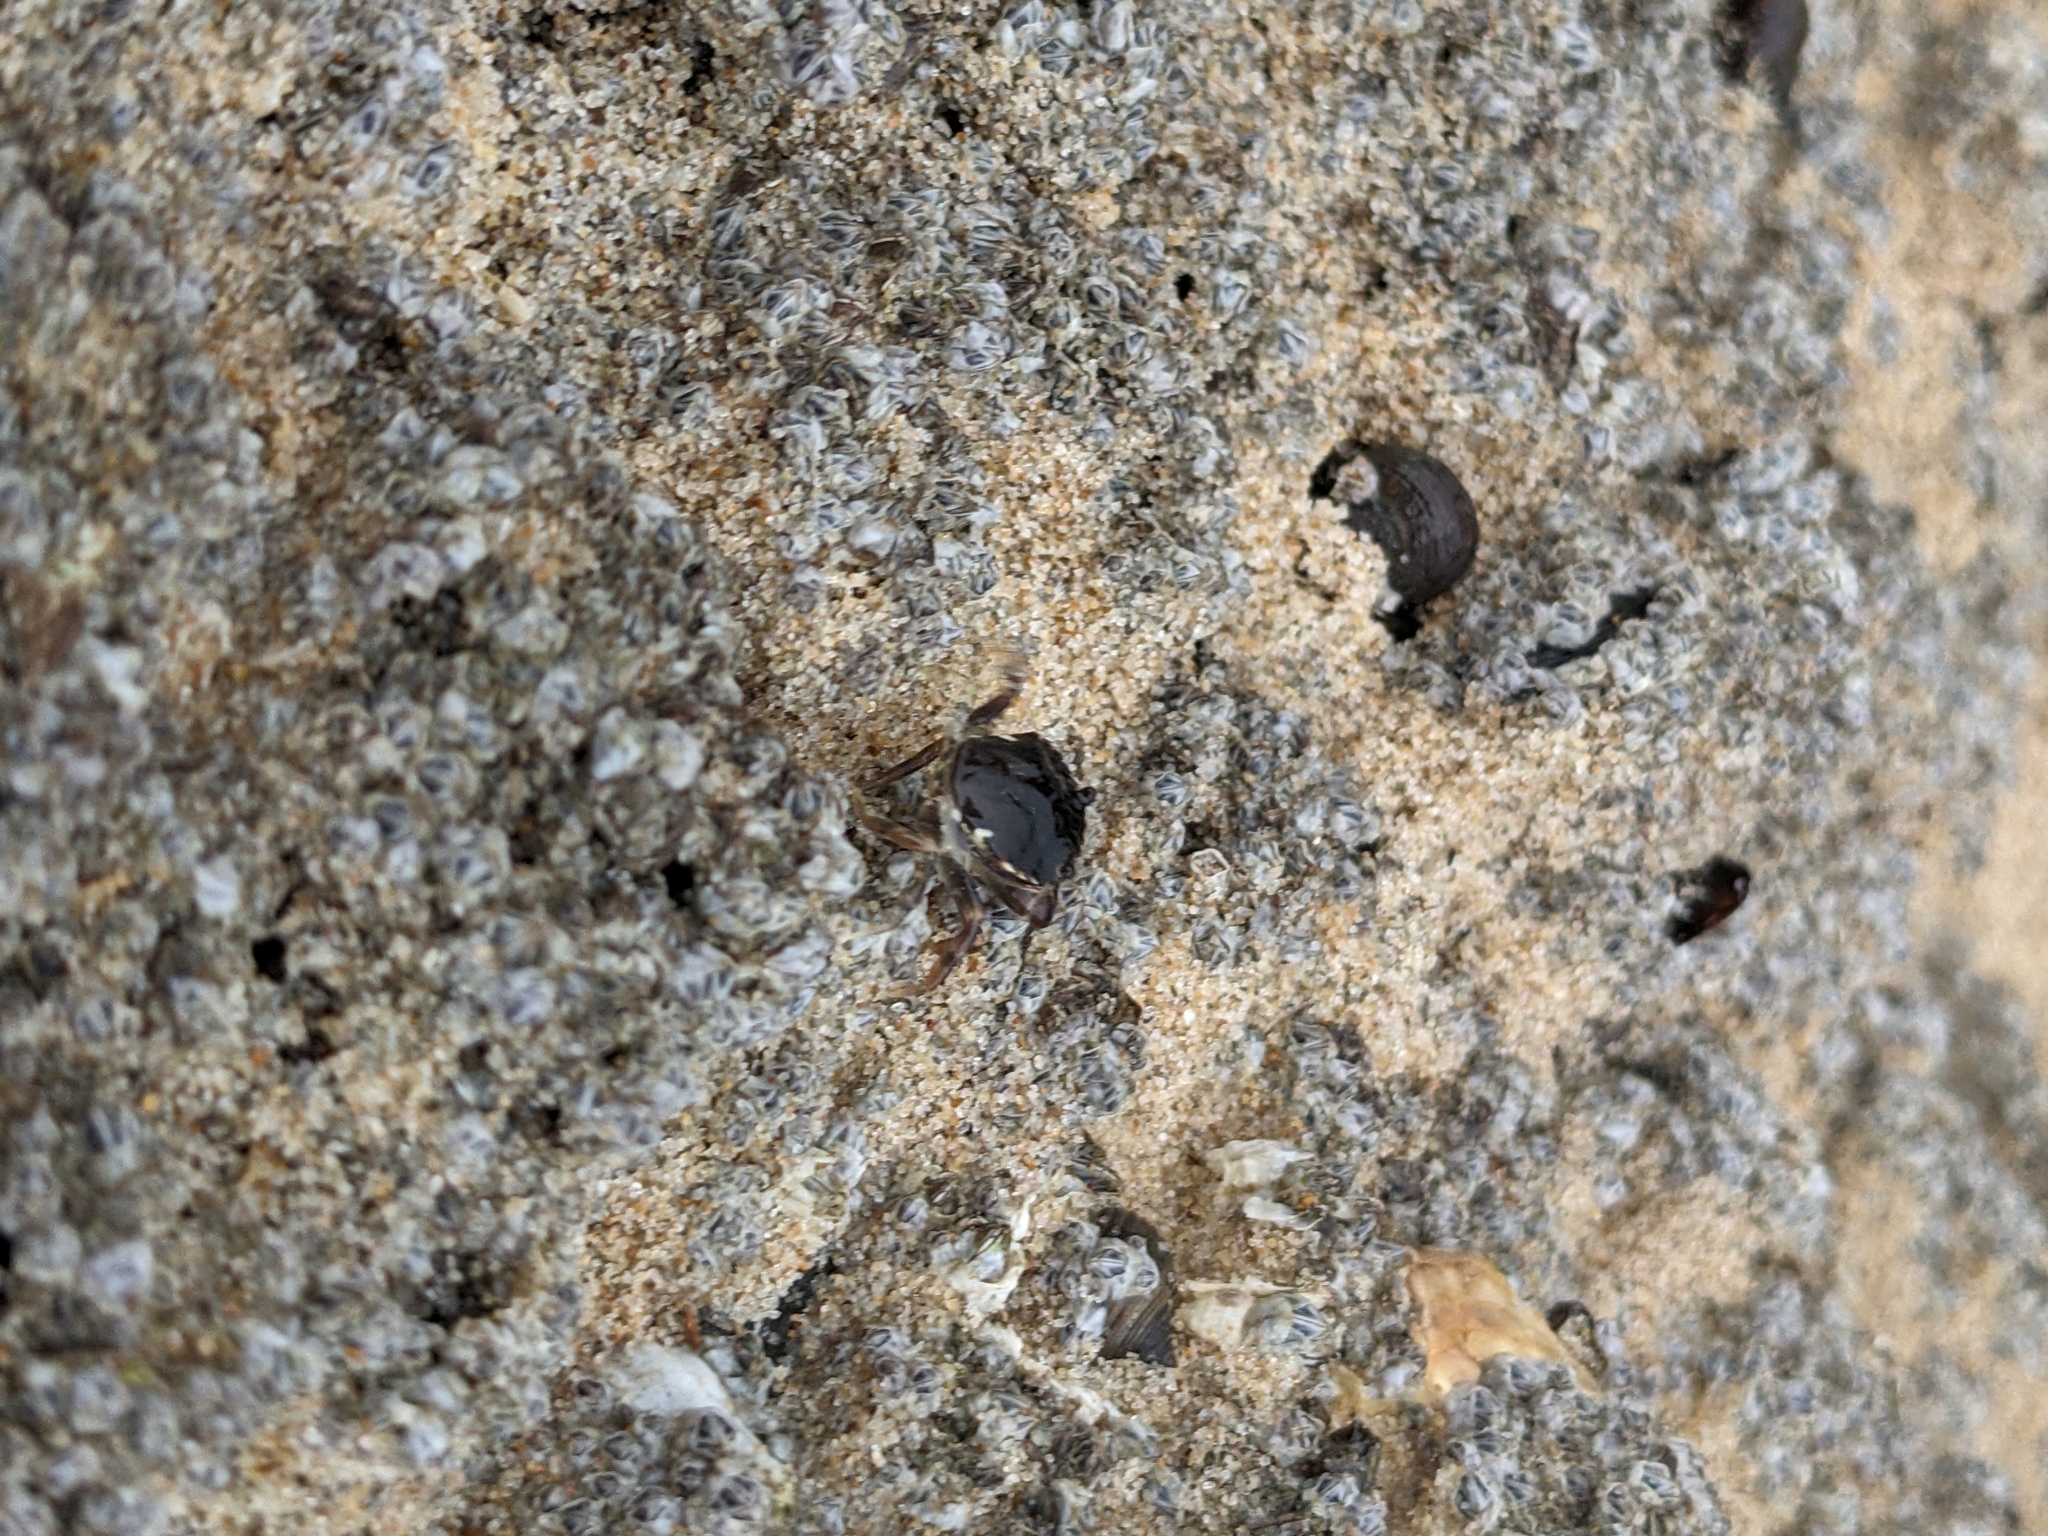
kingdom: Animalia
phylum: Arthropoda
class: Malacostraca
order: Decapoda
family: Carcinidae
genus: Carcinus
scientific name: Carcinus maenas
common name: European green crab
